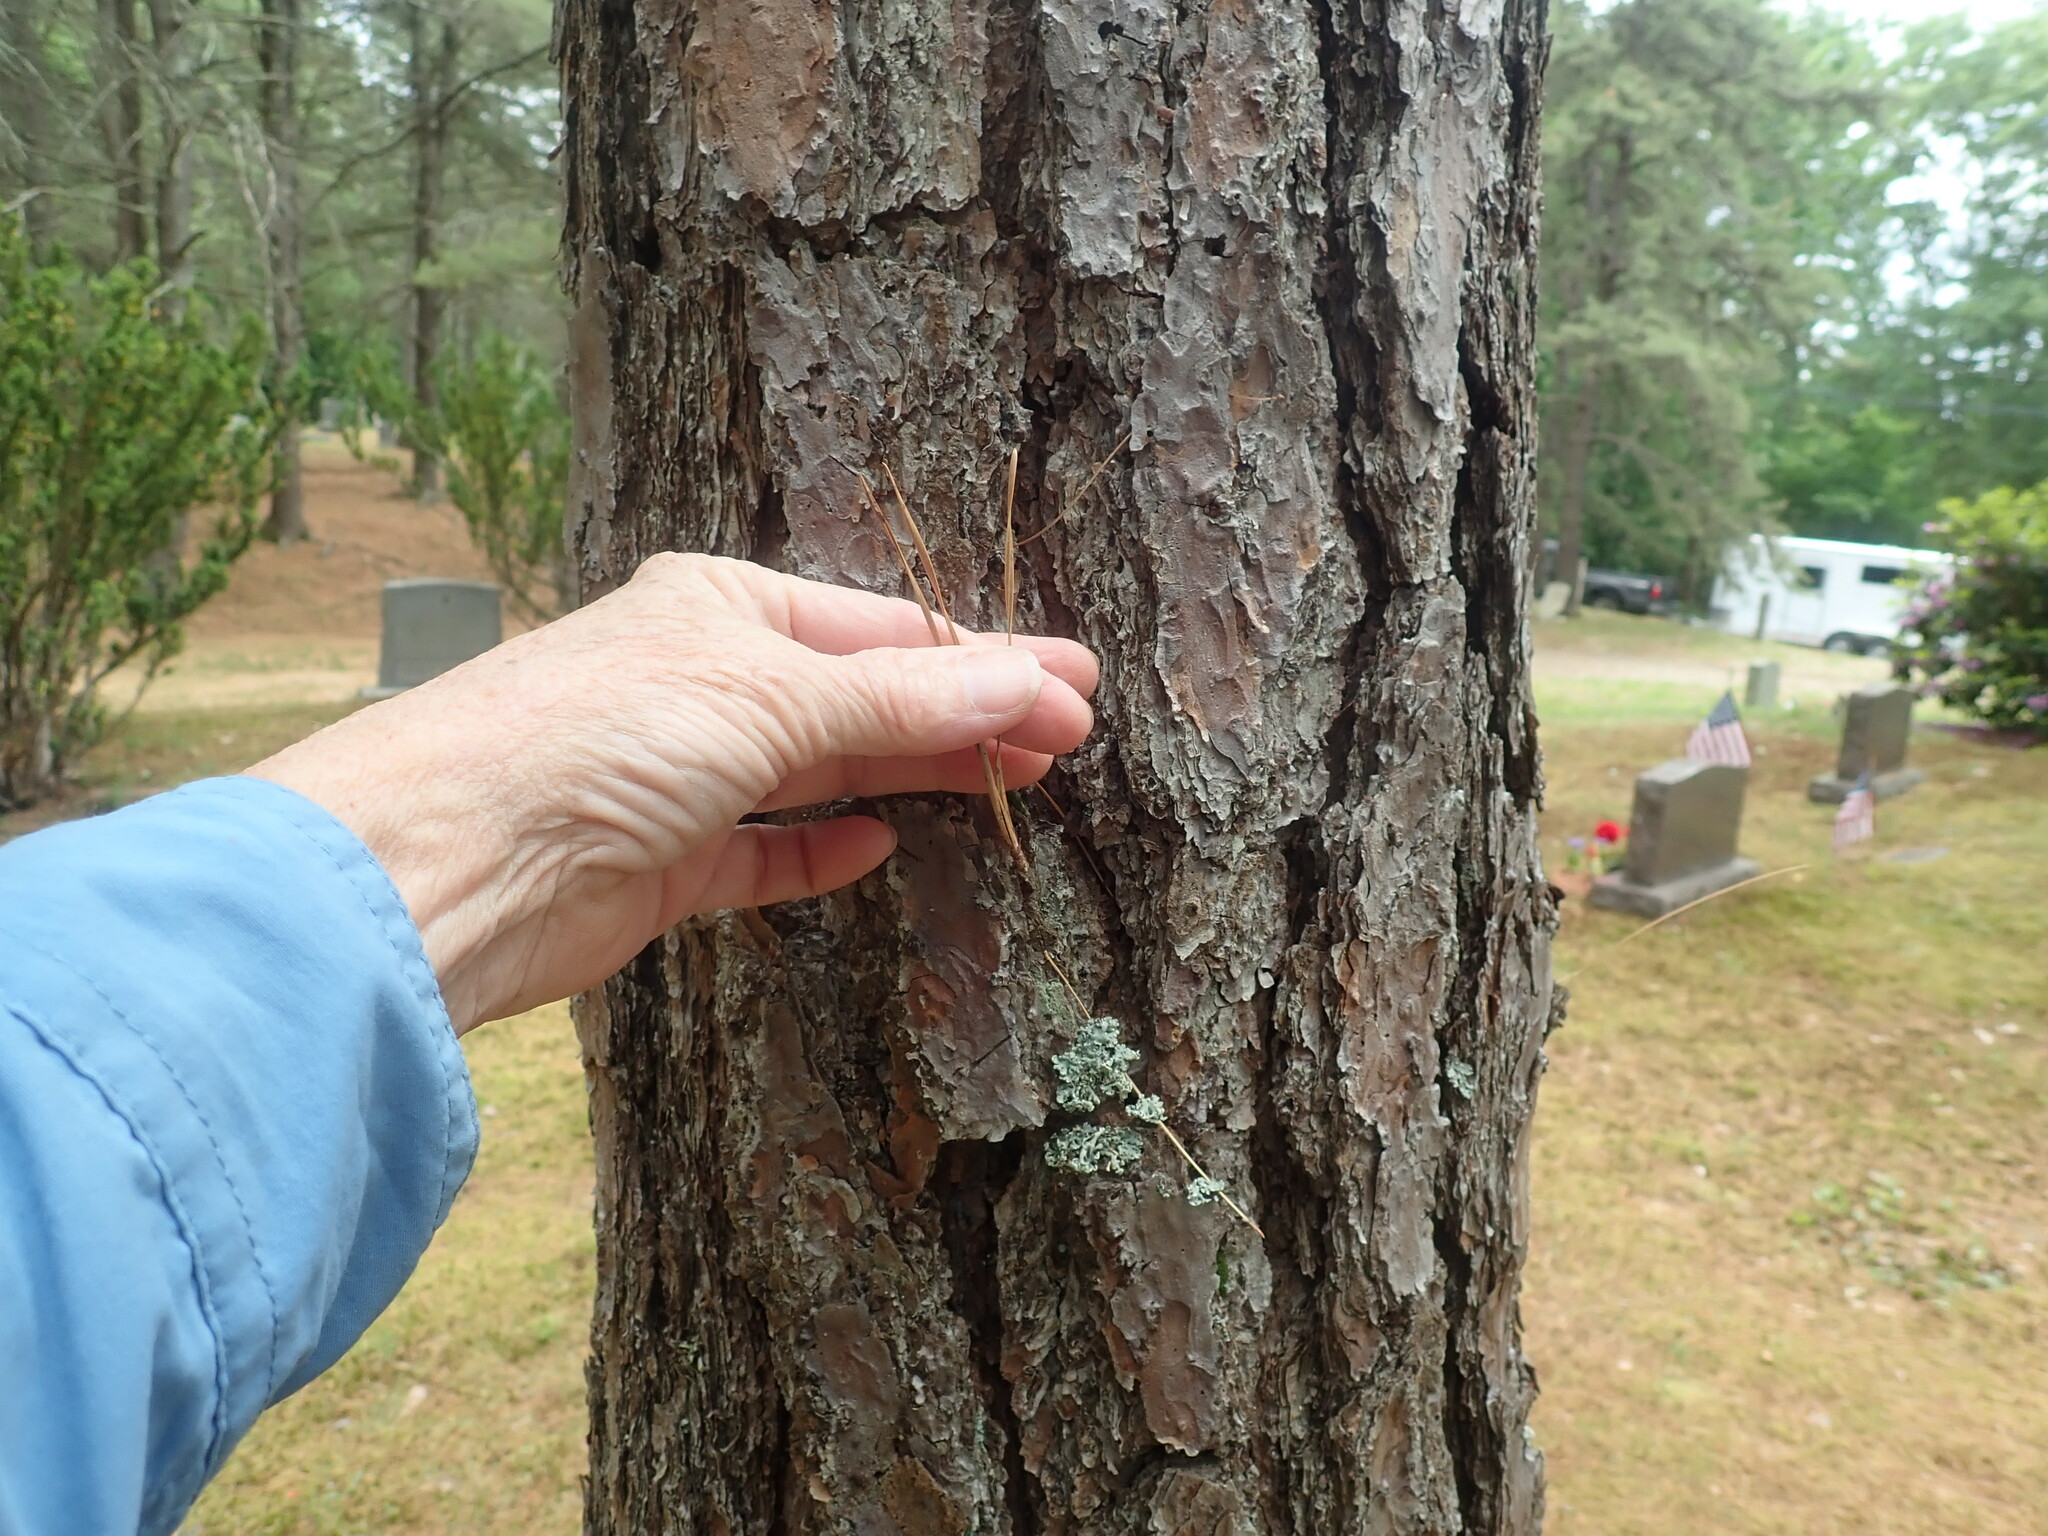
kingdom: Plantae
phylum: Tracheophyta
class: Pinopsida
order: Pinales
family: Pinaceae
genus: Pinus
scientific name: Pinus rigida
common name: Pitch pine
